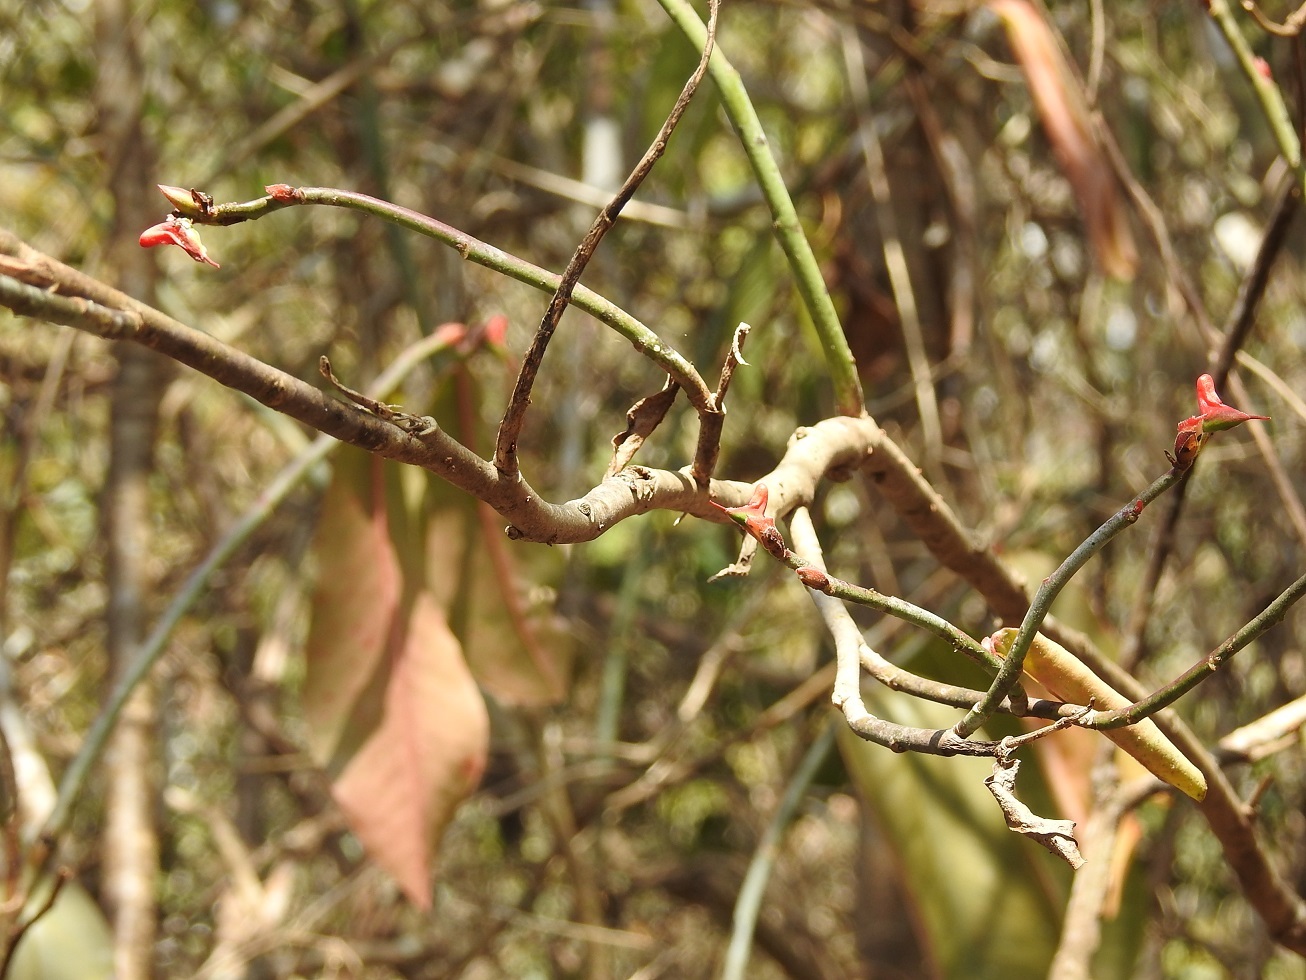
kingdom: Plantae
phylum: Tracheophyta
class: Magnoliopsida
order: Malpighiales
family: Euphorbiaceae
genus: Euphorbia
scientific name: Euphorbia calcarata
